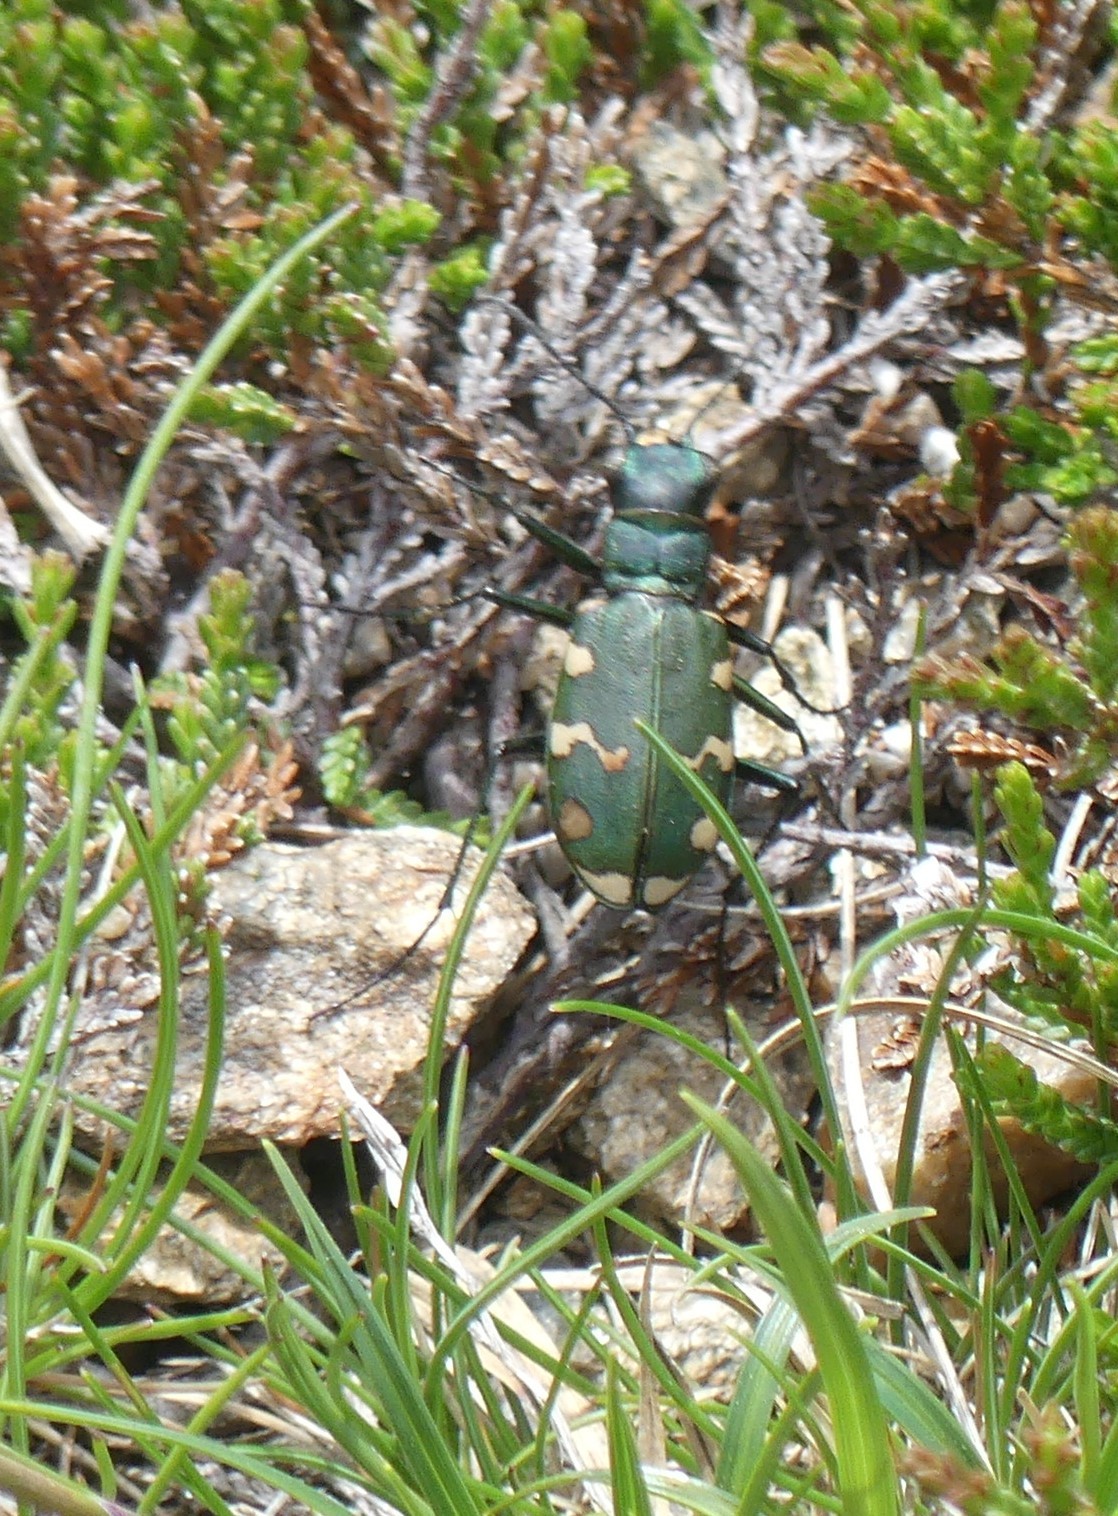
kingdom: Animalia
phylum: Arthropoda
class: Insecta
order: Coleoptera
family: Carabidae
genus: Cicindela
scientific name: Cicindela gallica
